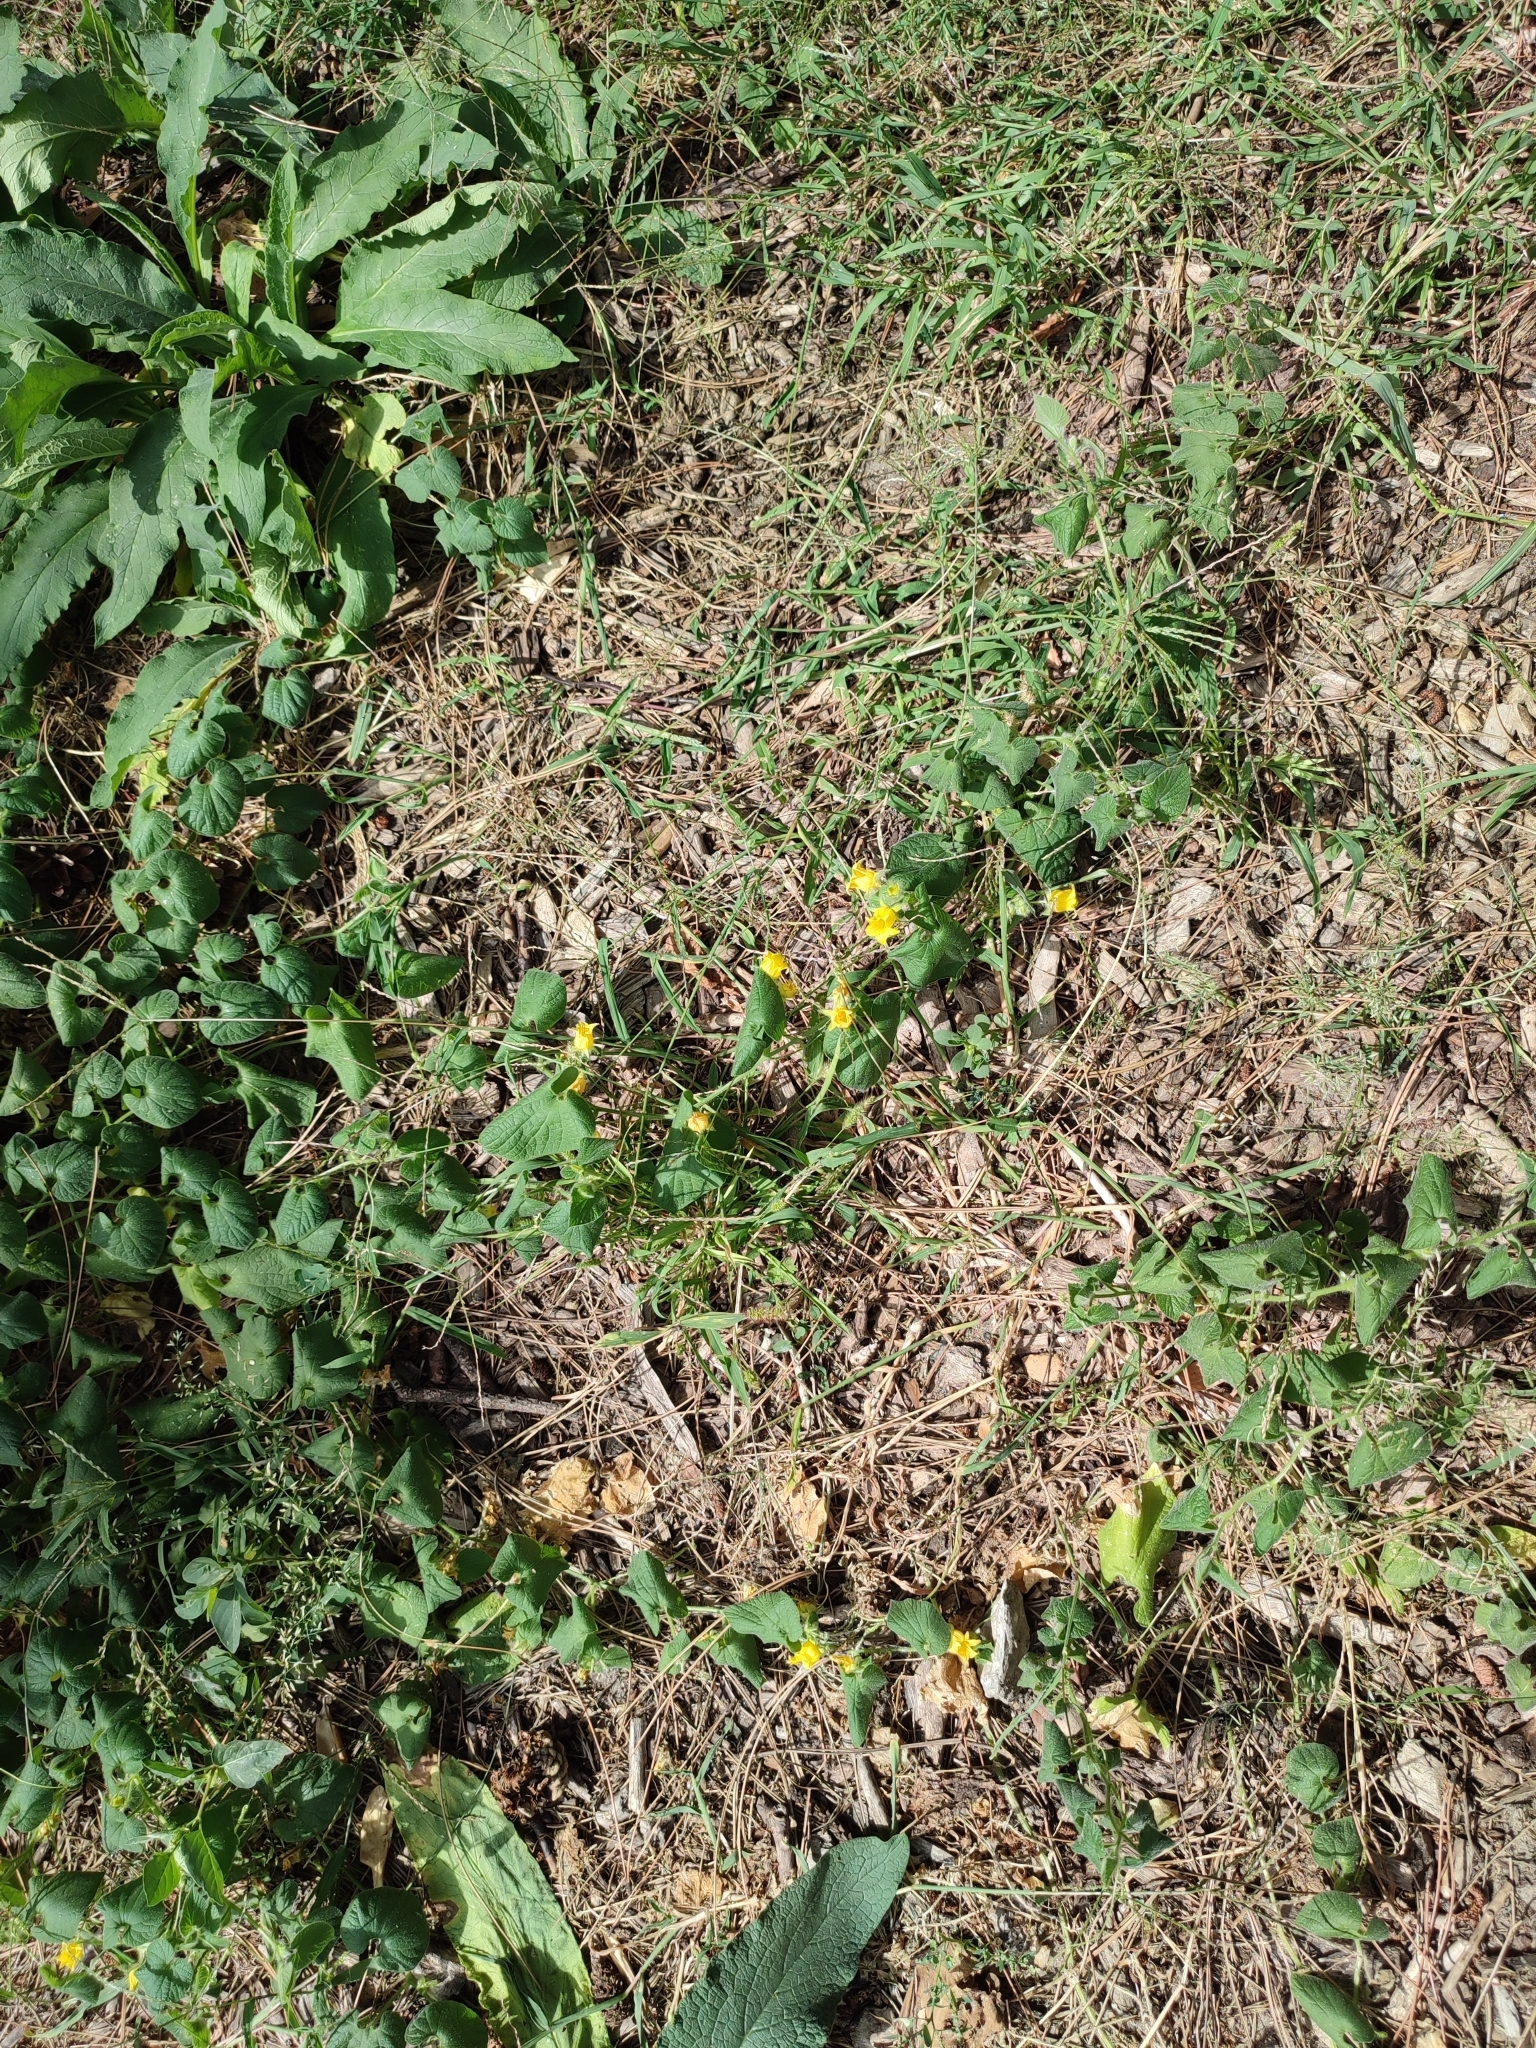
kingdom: Plantae
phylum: Tracheophyta
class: Magnoliopsida
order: Cucurbitales
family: Cucurbitaceae
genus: Thladiantha
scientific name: Thladiantha dubia
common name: Manchu tubergourd
